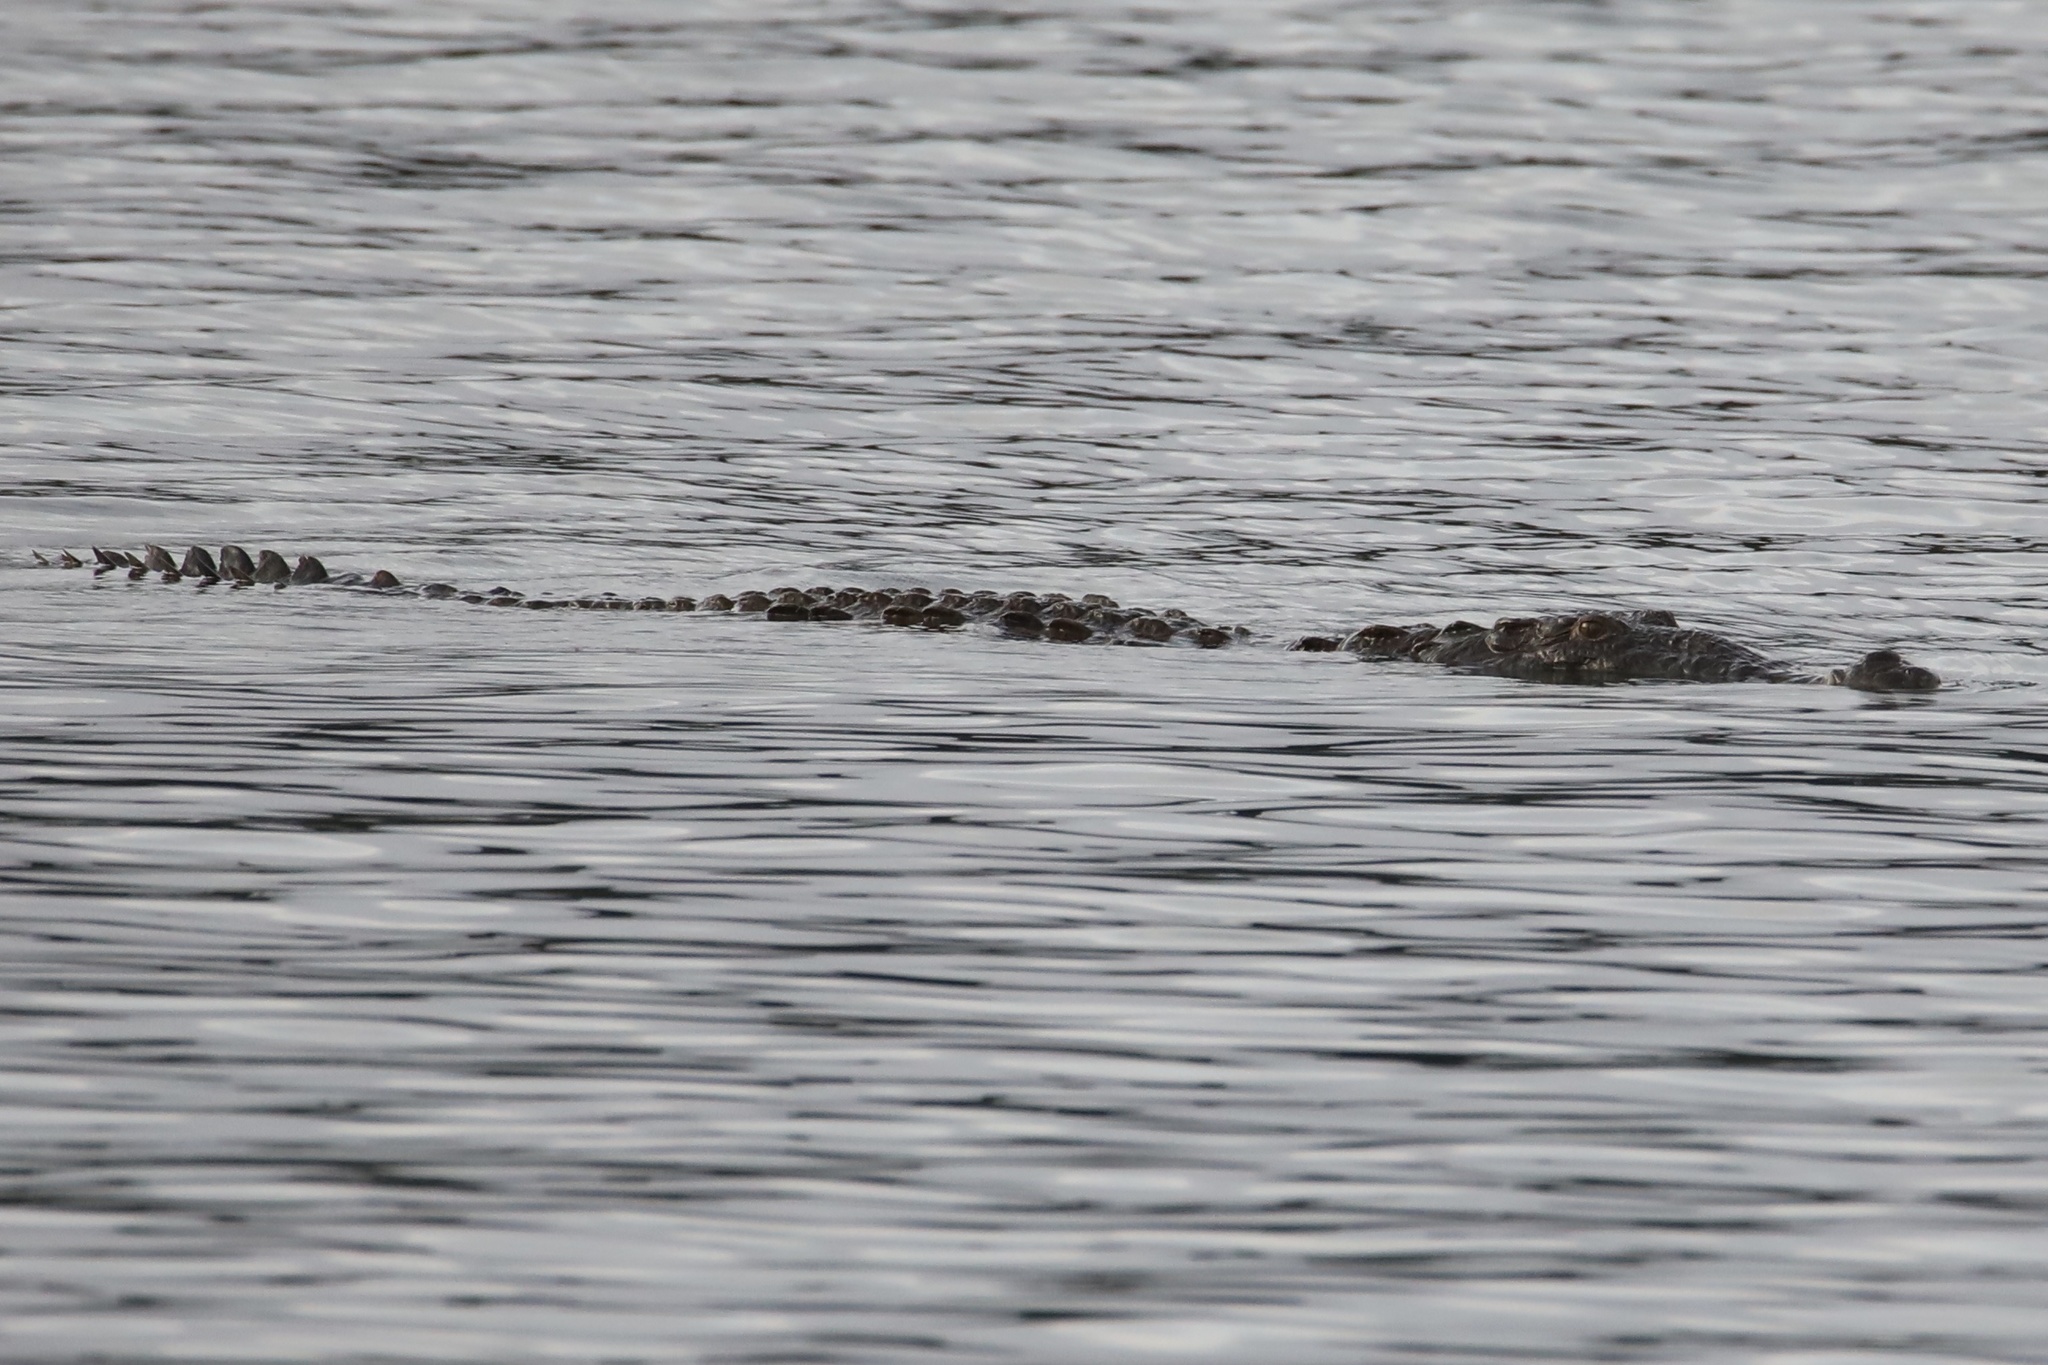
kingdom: Animalia
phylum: Chordata
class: Crocodylia
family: Crocodylidae
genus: Crocodylus
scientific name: Crocodylus acutus
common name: American crocodile
